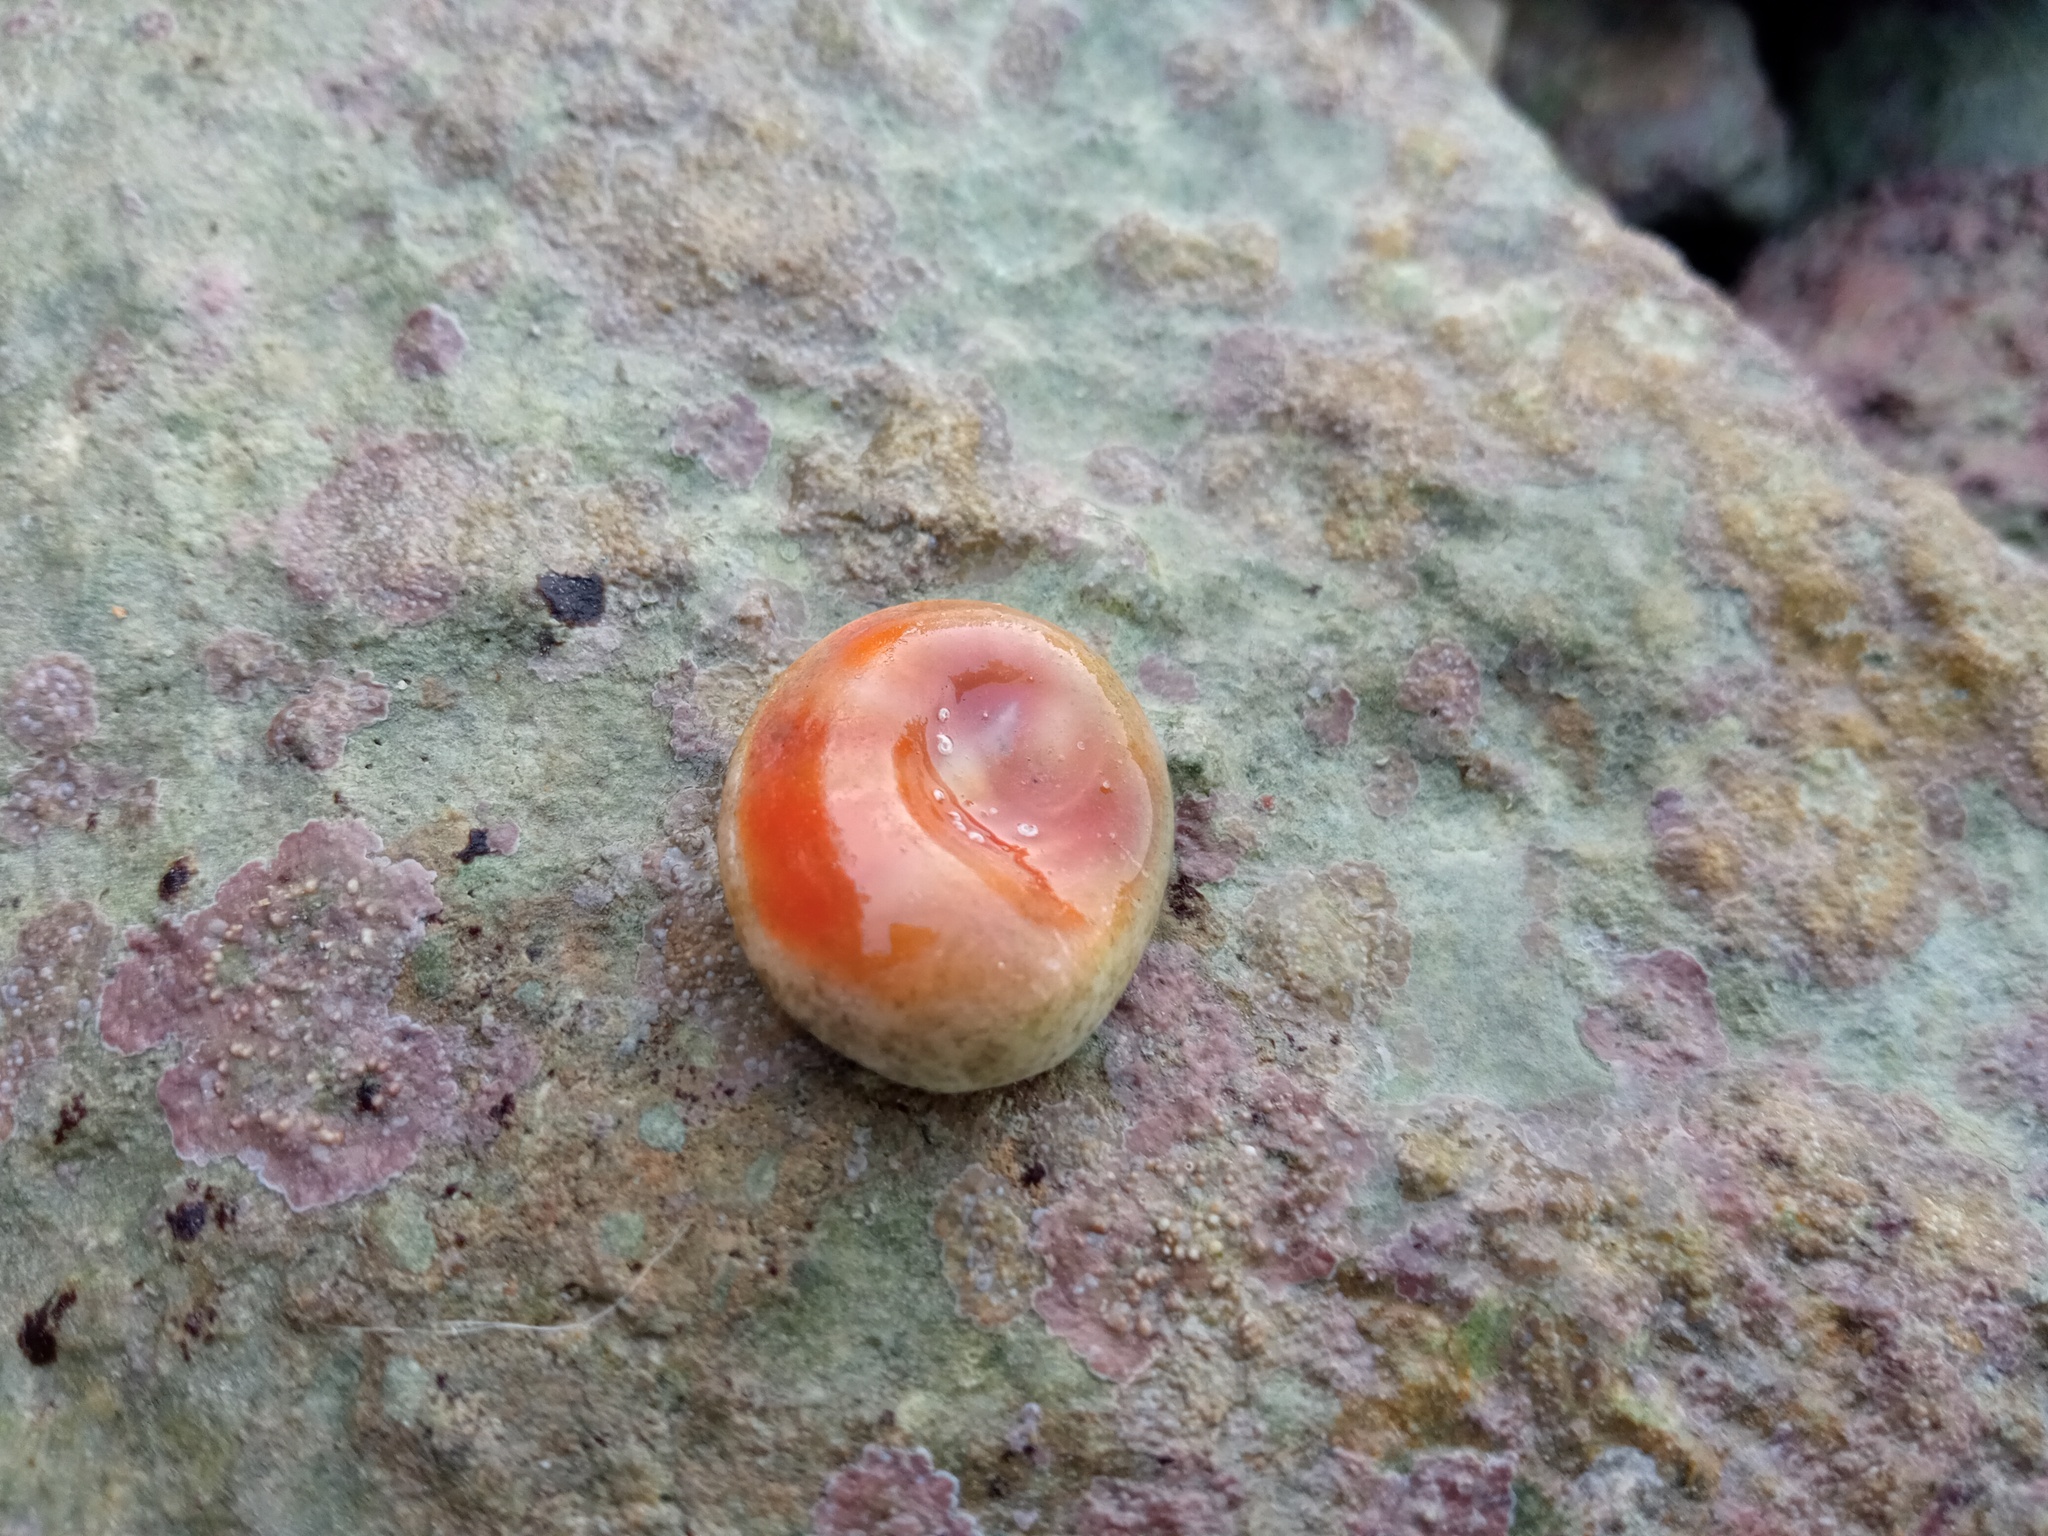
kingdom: Animalia
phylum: Mollusca
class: Gastropoda
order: Trochida
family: Turbinidae
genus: Bolma
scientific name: Bolma rugosa
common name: Rough star shell
